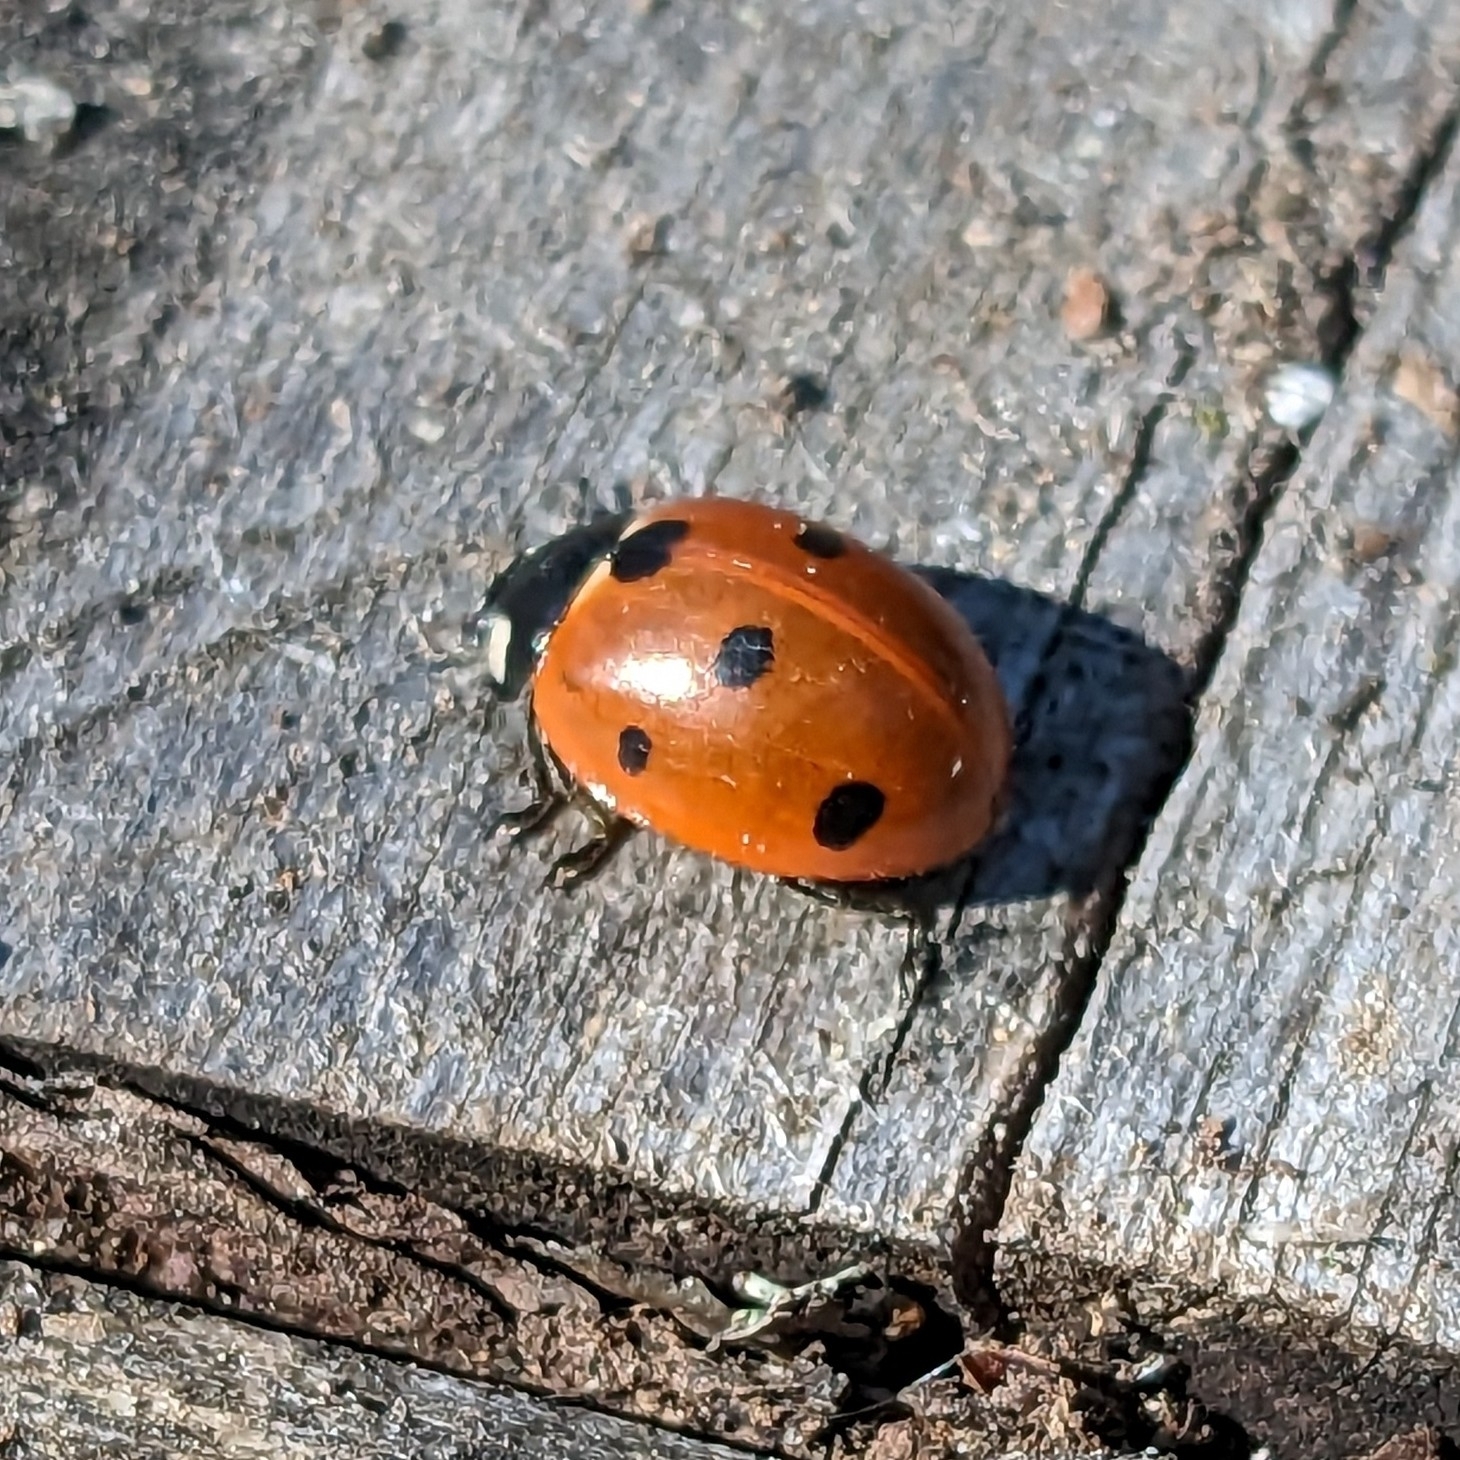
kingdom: Animalia
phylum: Arthropoda
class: Insecta
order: Coleoptera
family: Coccinellidae
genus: Coccinella
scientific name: Coccinella septempunctata
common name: Sevenspotted lady beetle
